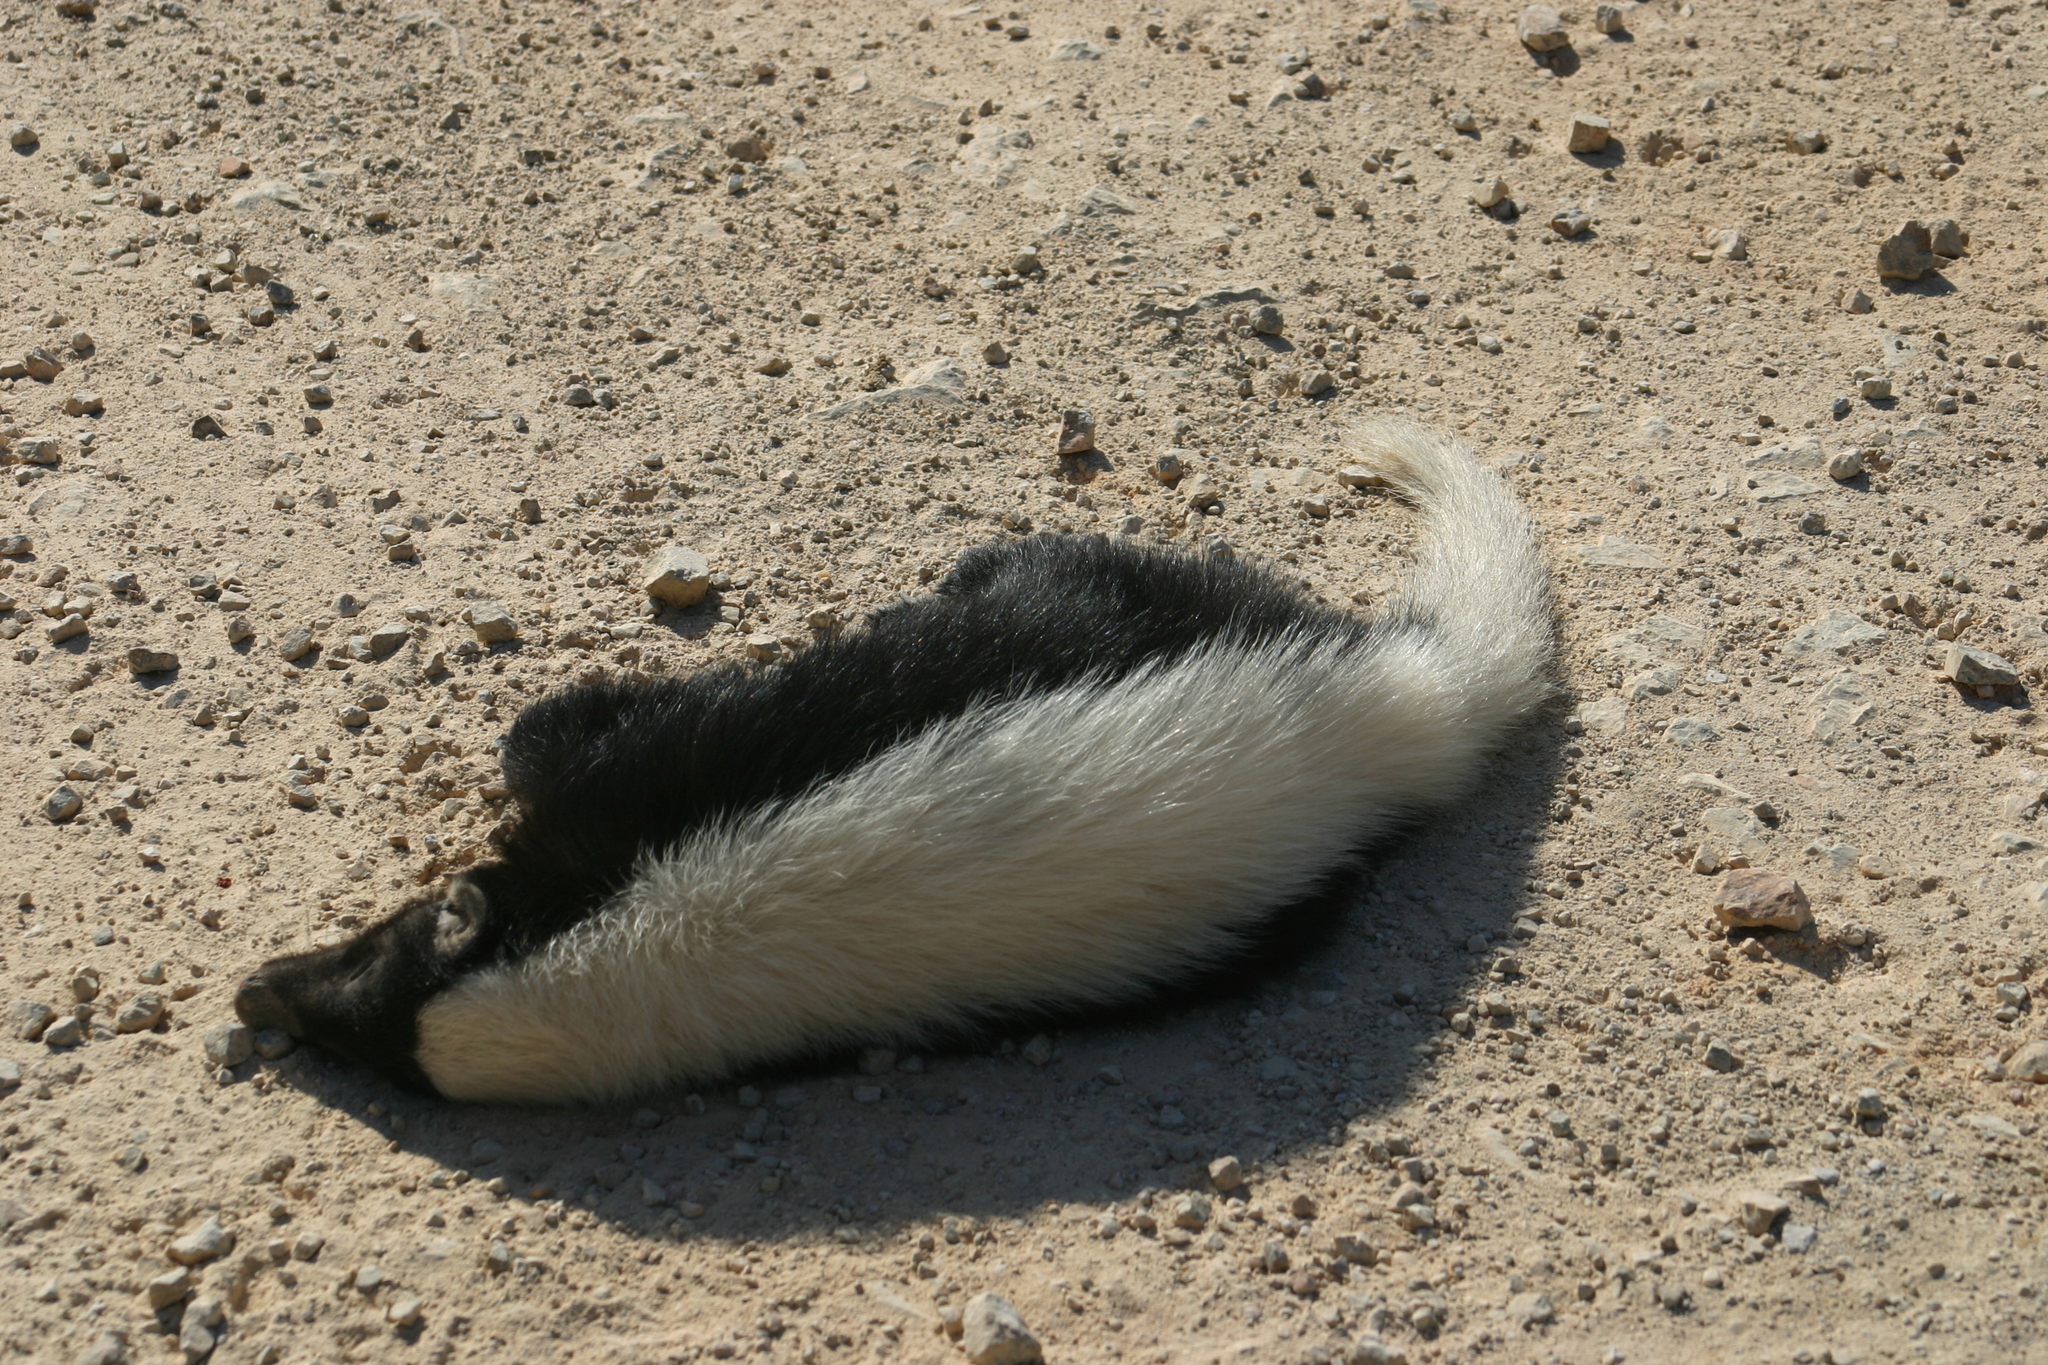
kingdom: Animalia
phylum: Chordata
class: Mammalia
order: Carnivora
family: Mephitidae
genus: Conepatus
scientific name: Conepatus leuconotus
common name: Eastern hog-nosed skunk
